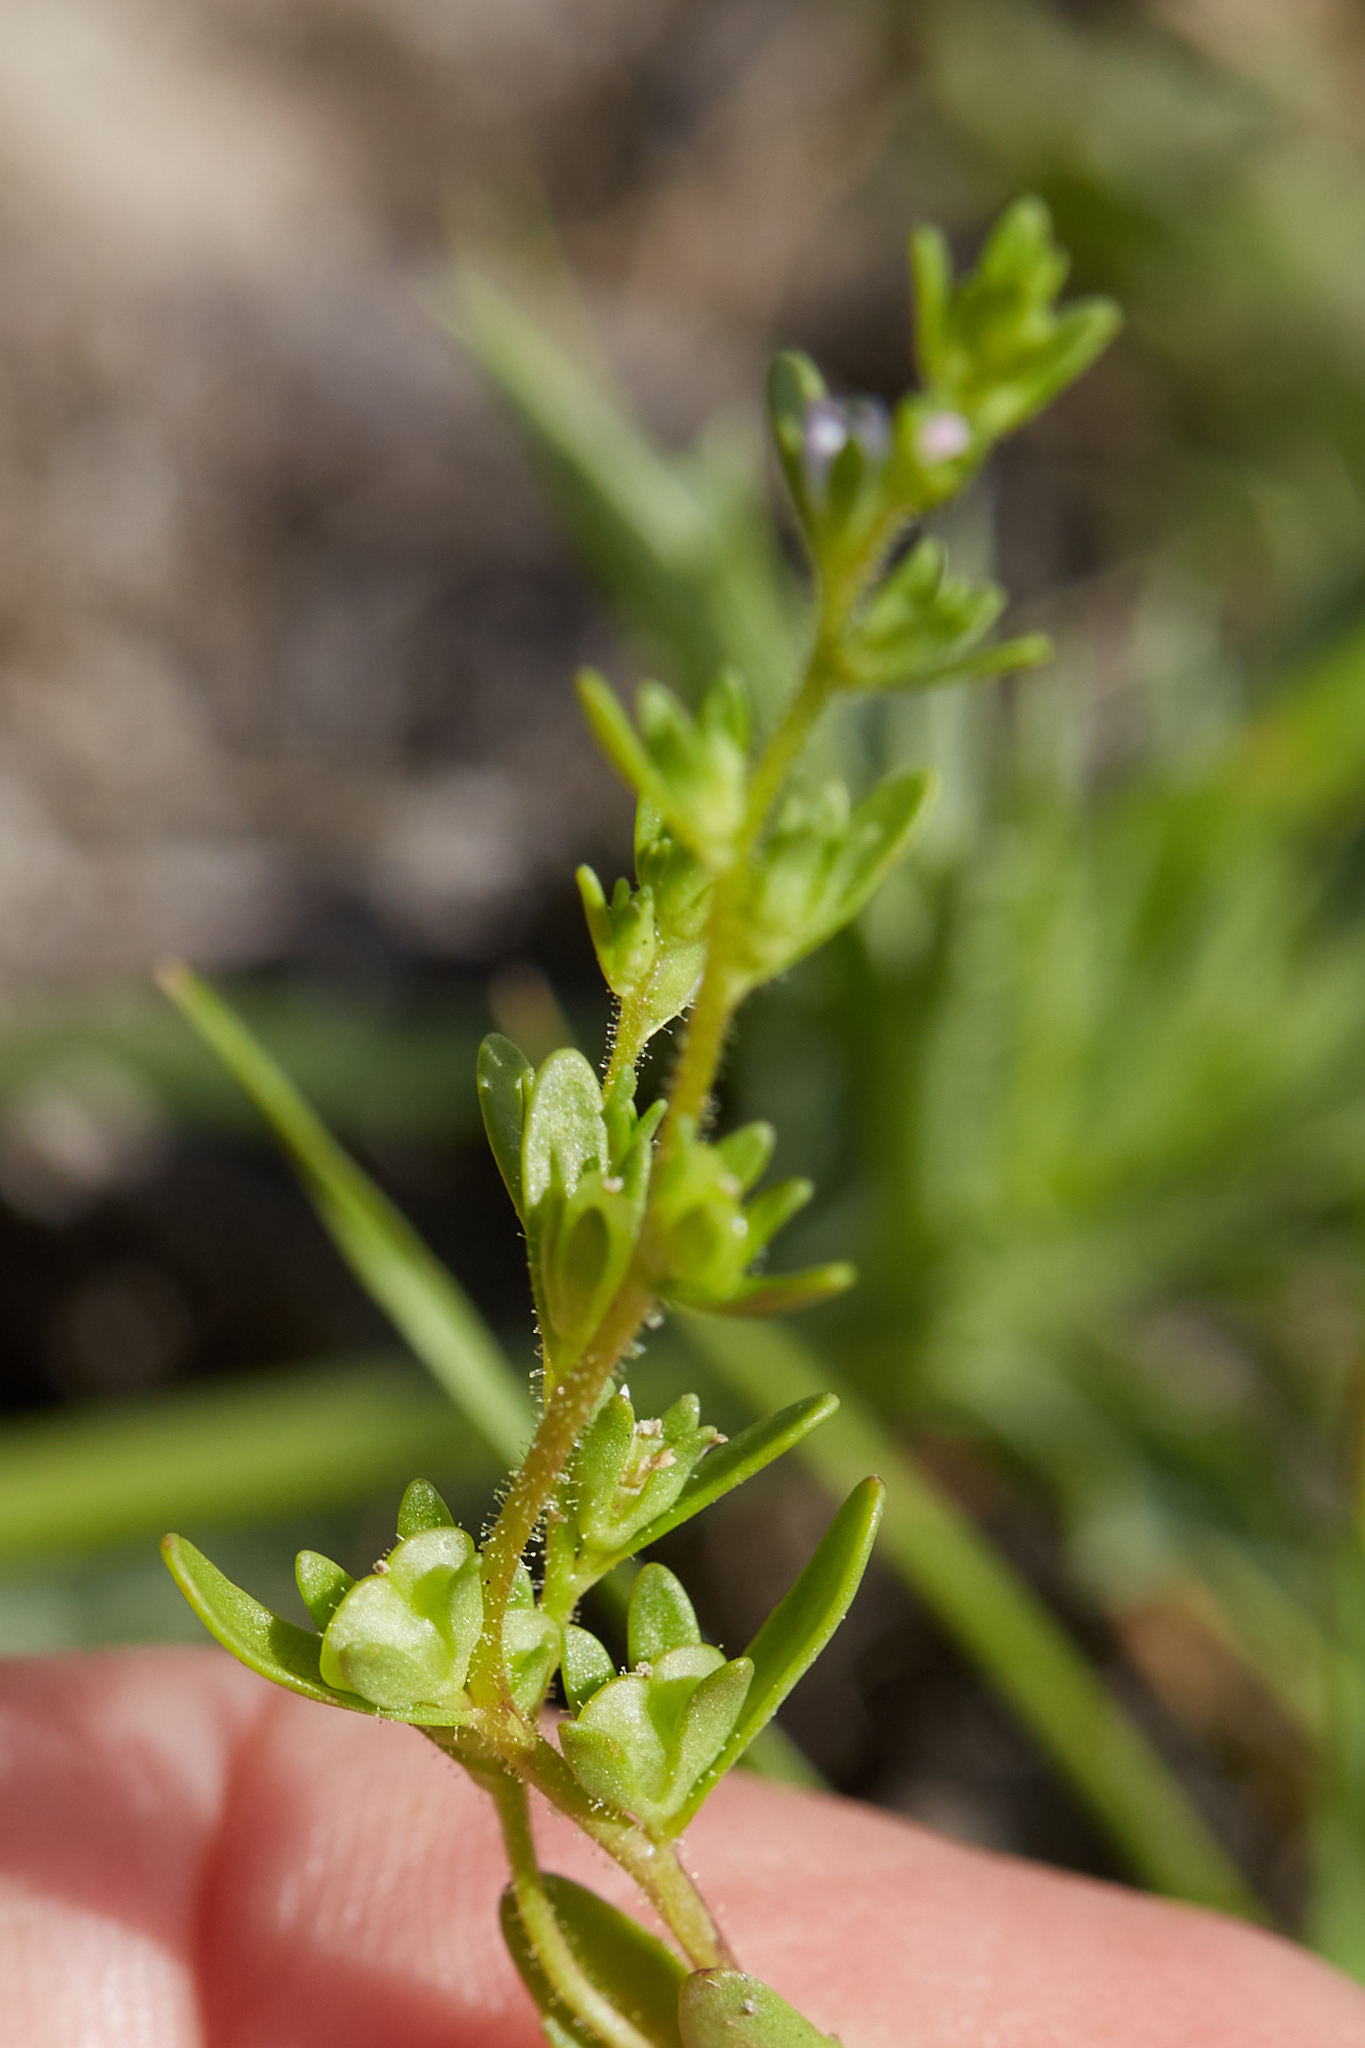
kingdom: Plantae
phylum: Tracheophyta
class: Magnoliopsida
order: Lamiales
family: Plantaginaceae
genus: Veronica
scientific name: Veronica peregrina
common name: Neckweed
